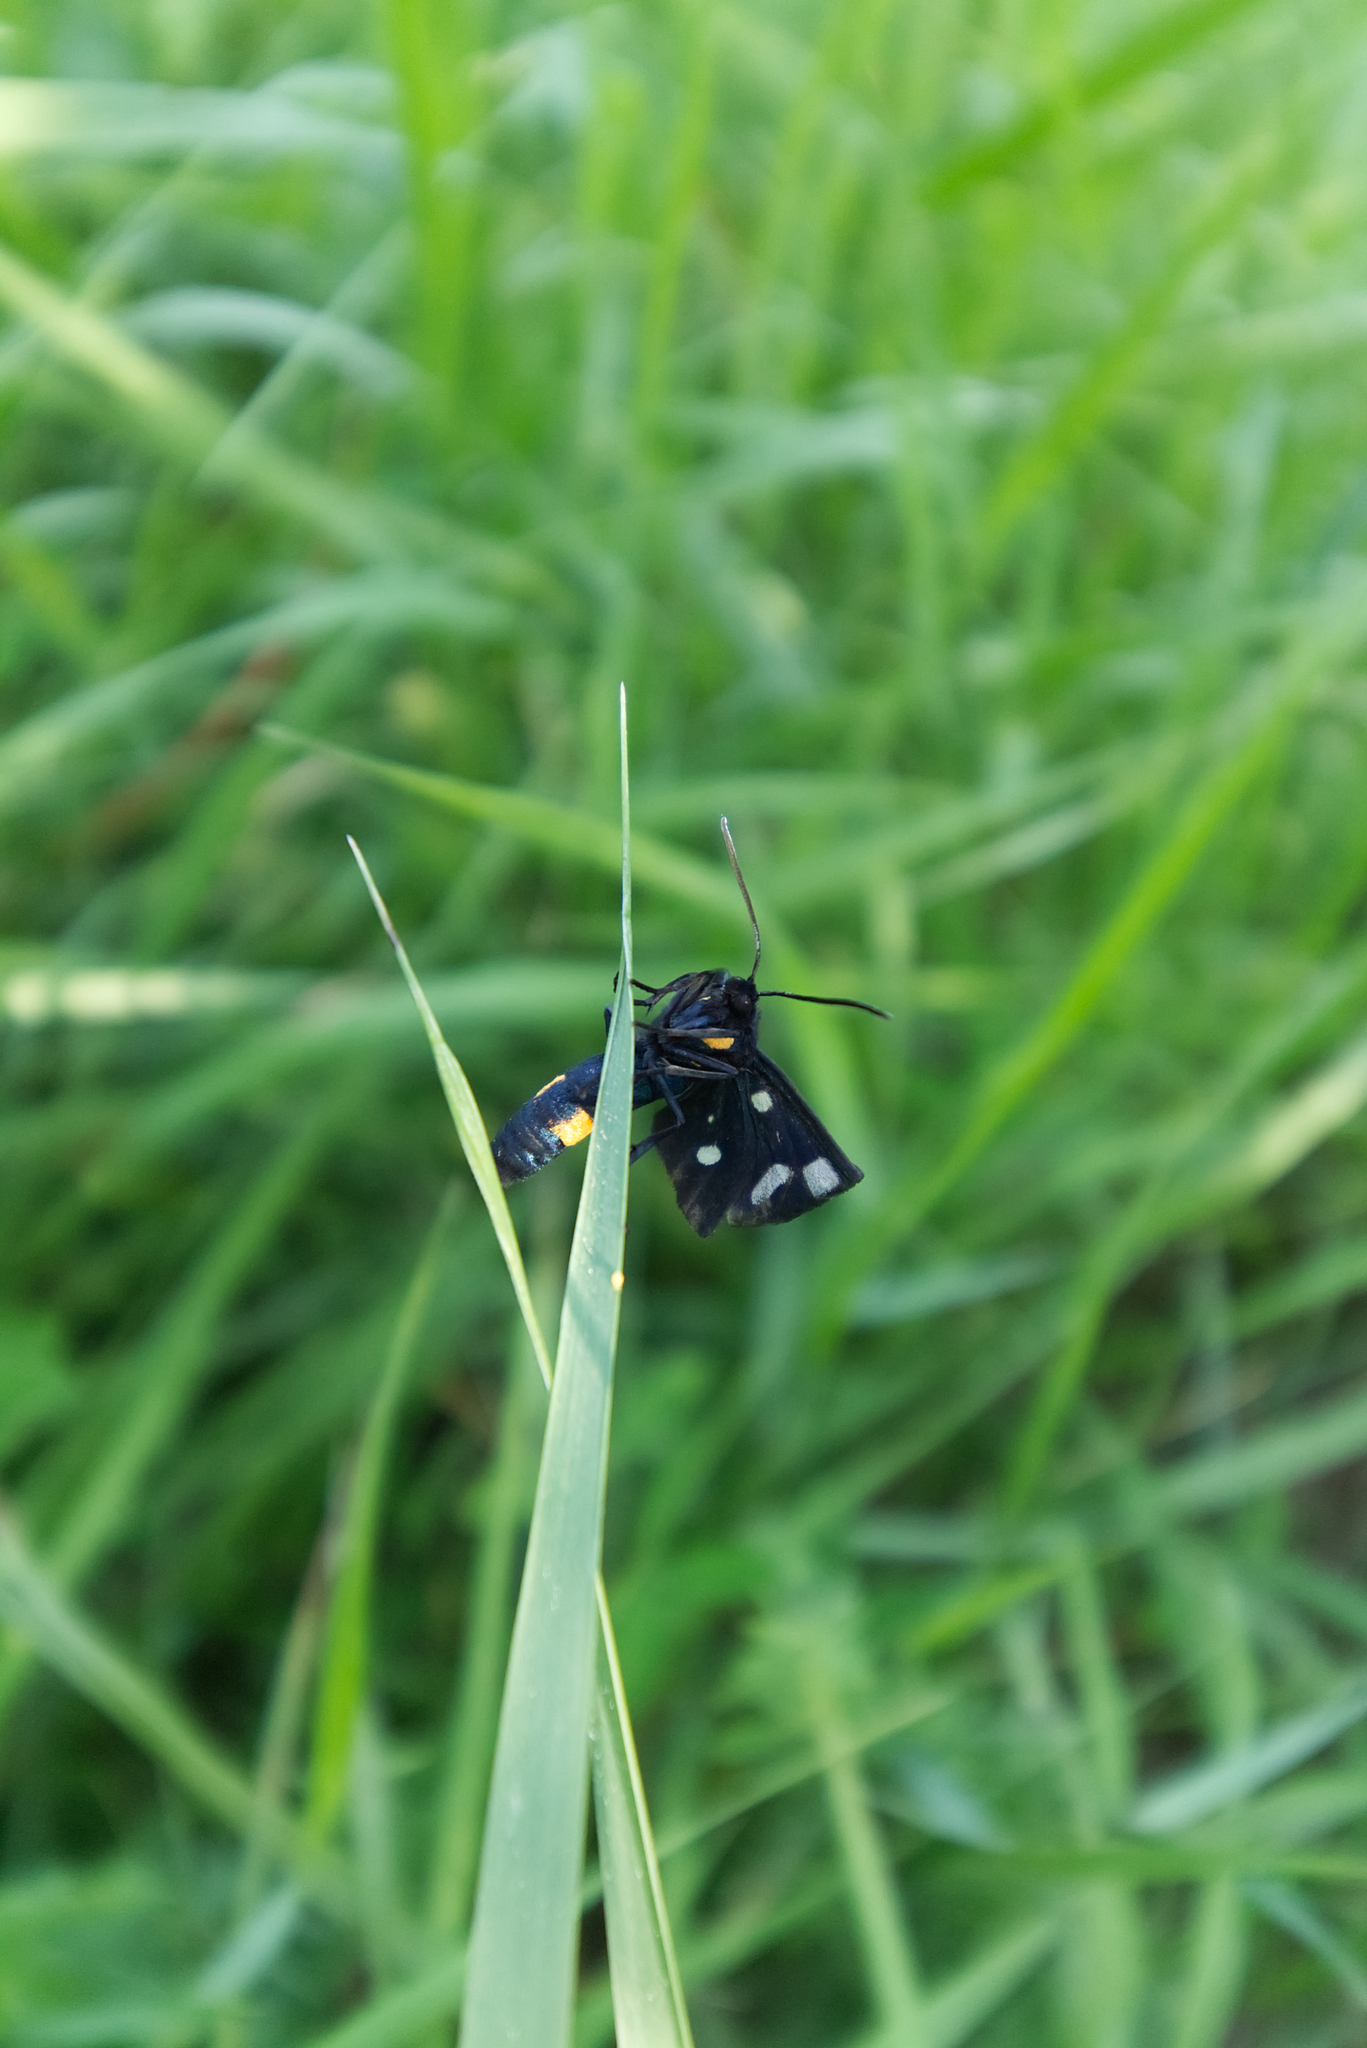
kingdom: Animalia
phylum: Arthropoda
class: Insecta
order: Lepidoptera
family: Erebidae
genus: Amata
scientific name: Amata phegea
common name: Nine-spotted
